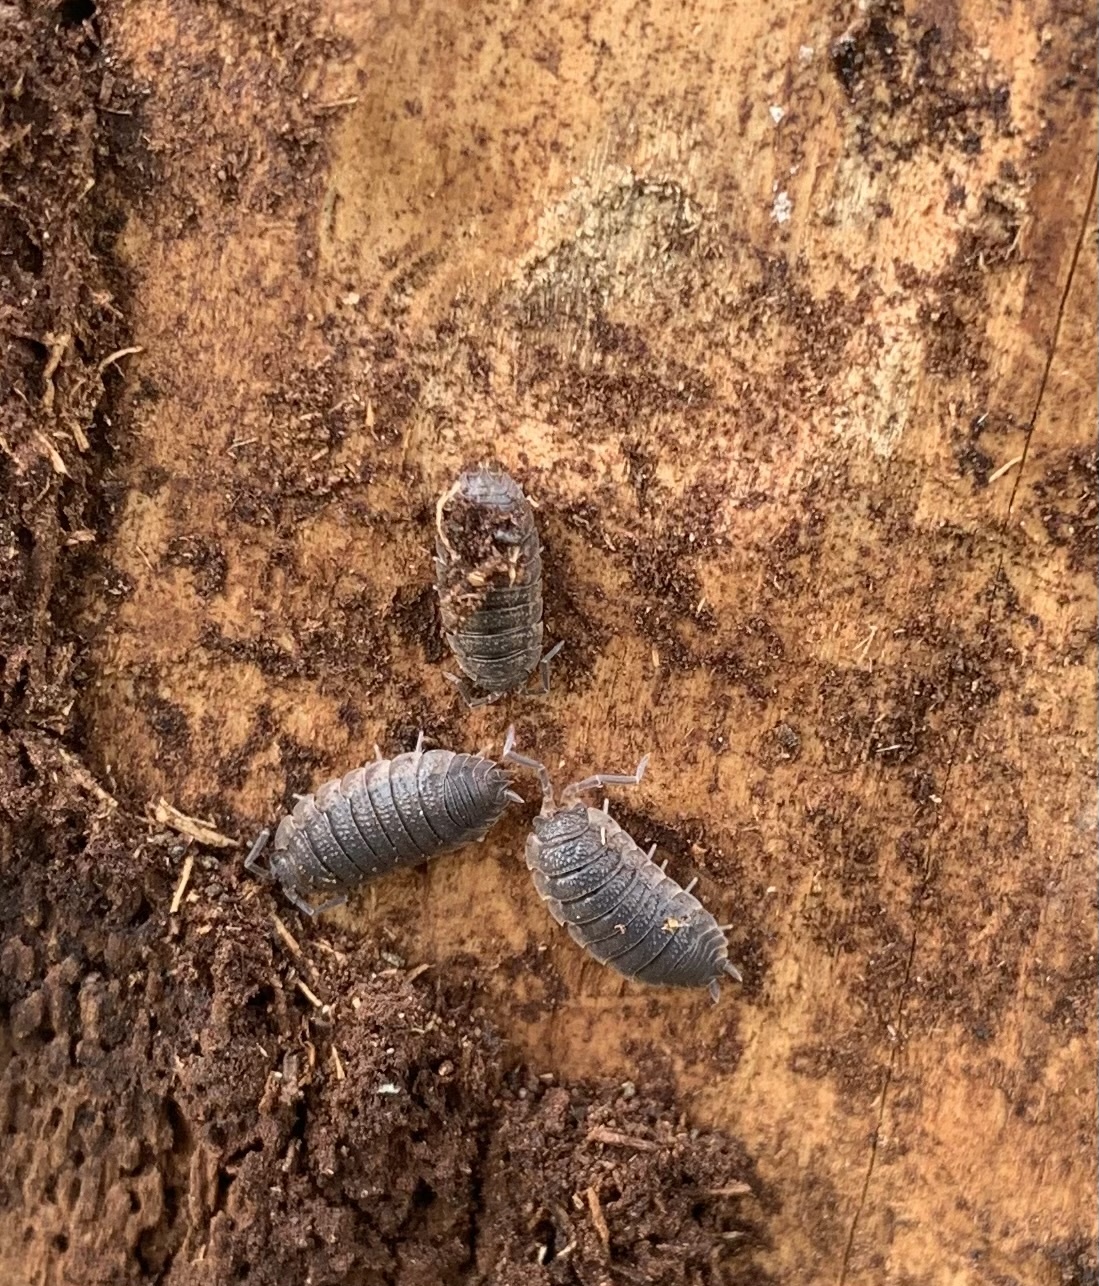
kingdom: Animalia
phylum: Arthropoda
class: Malacostraca
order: Isopoda
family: Porcellionidae
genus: Porcellio
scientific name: Porcellio scaber
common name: Common rough woodlouse
